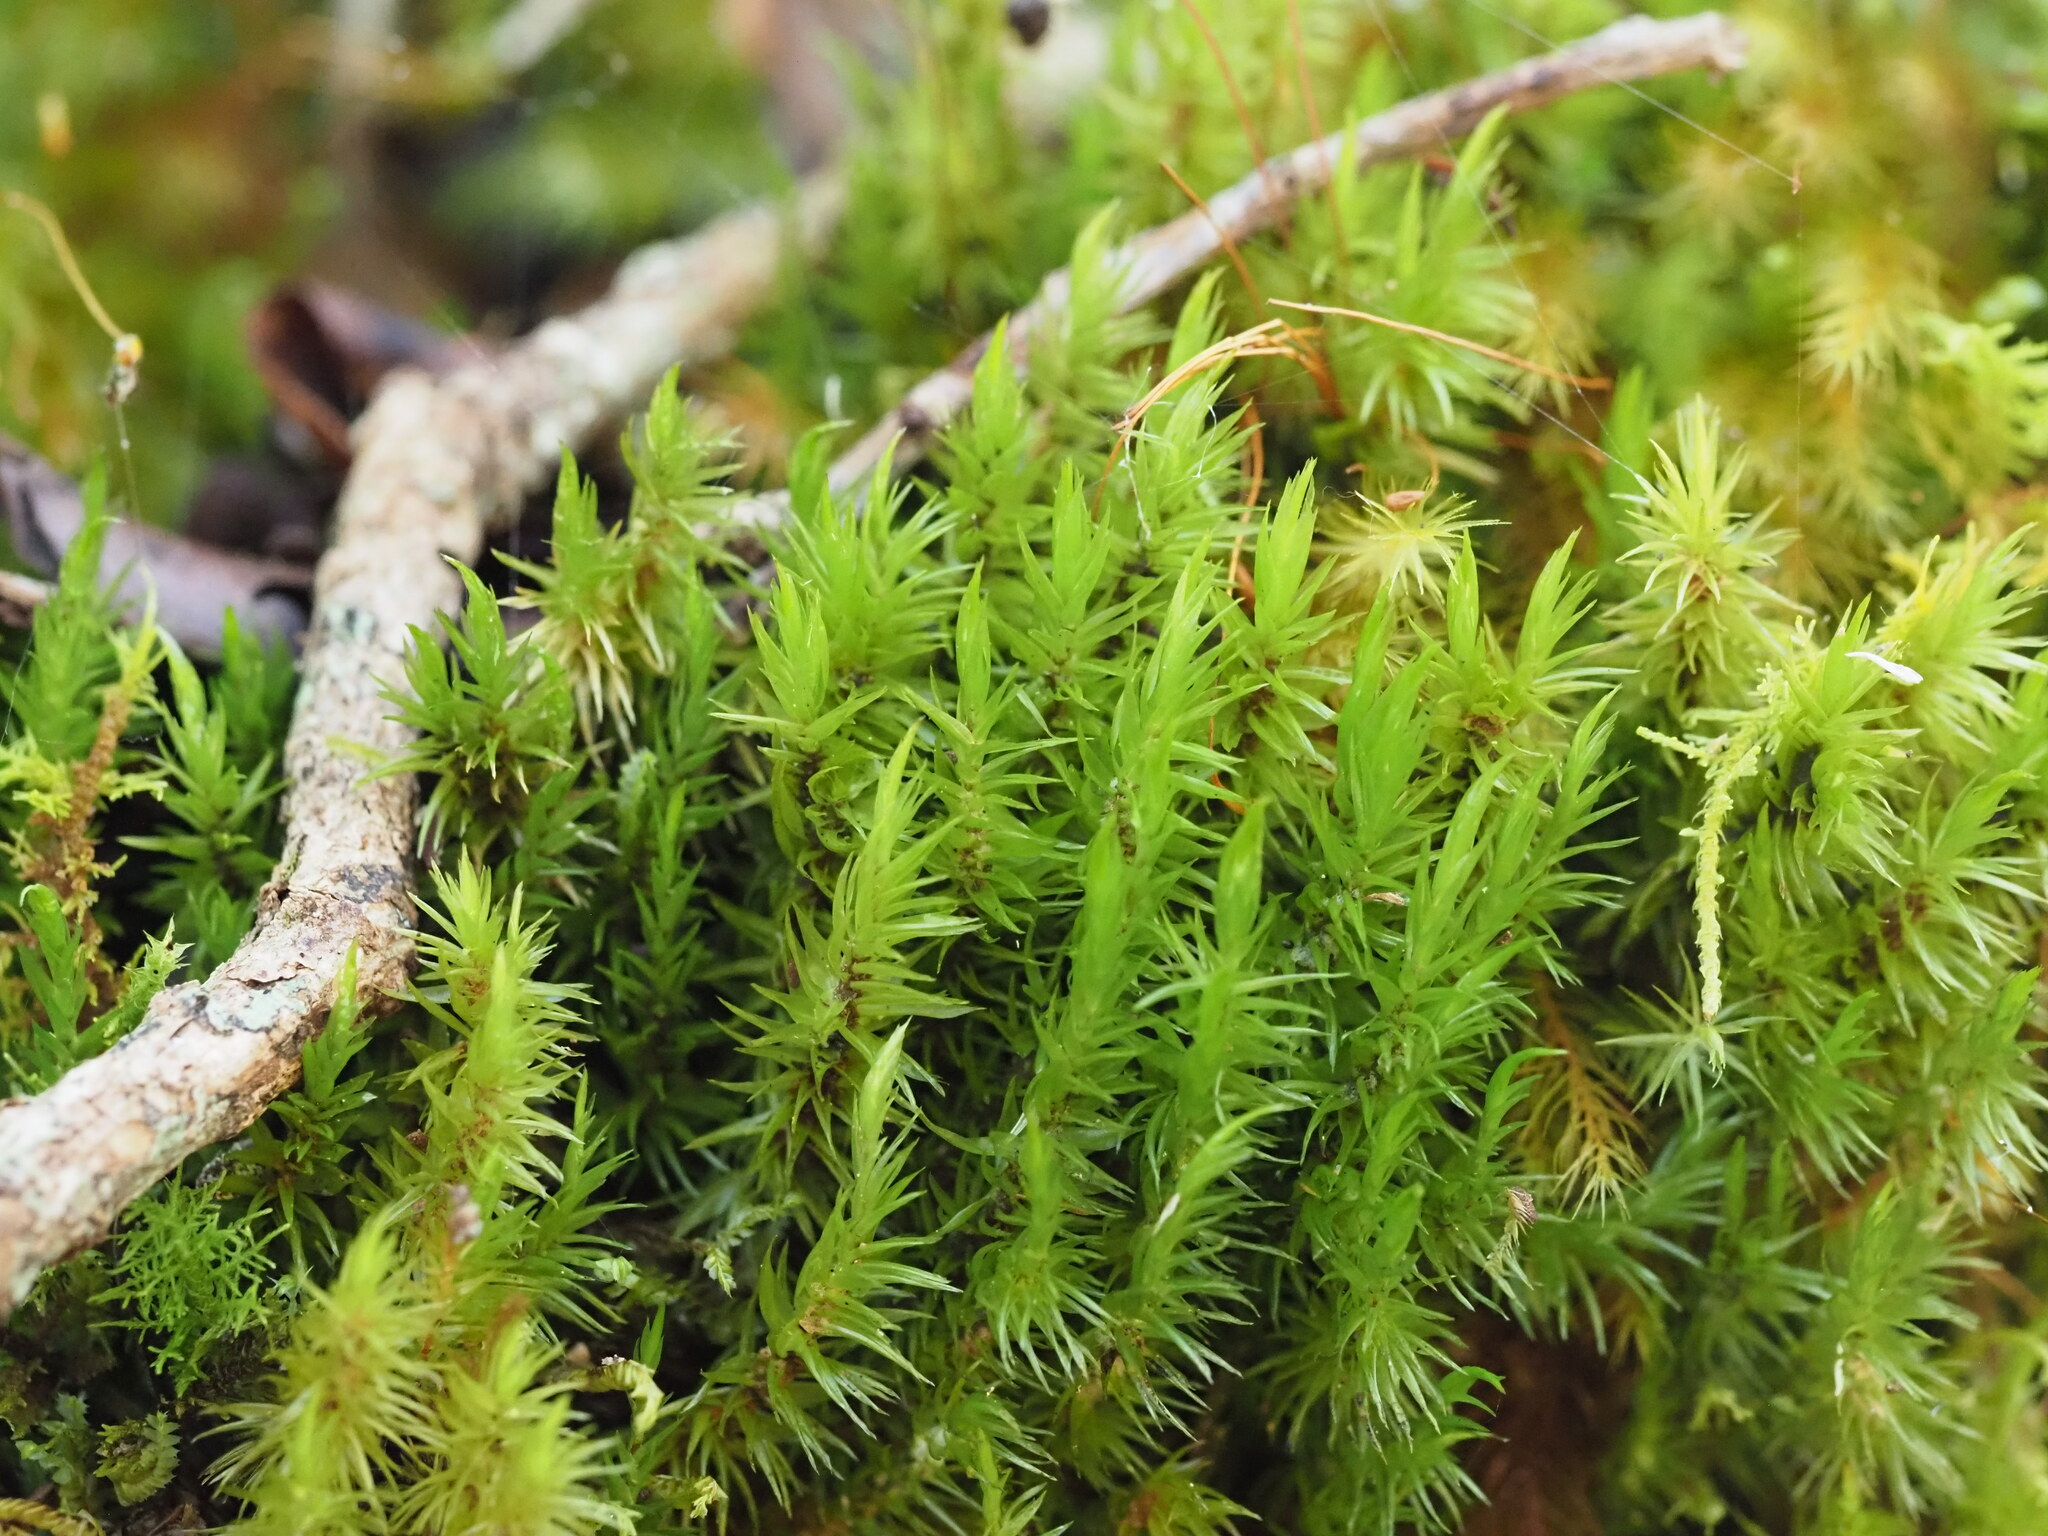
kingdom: Plantae
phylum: Bryophyta
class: Bryopsida
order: Hypnales
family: Sematophyllaceae
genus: Acroporium
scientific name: Acroporium fuscoflavum
